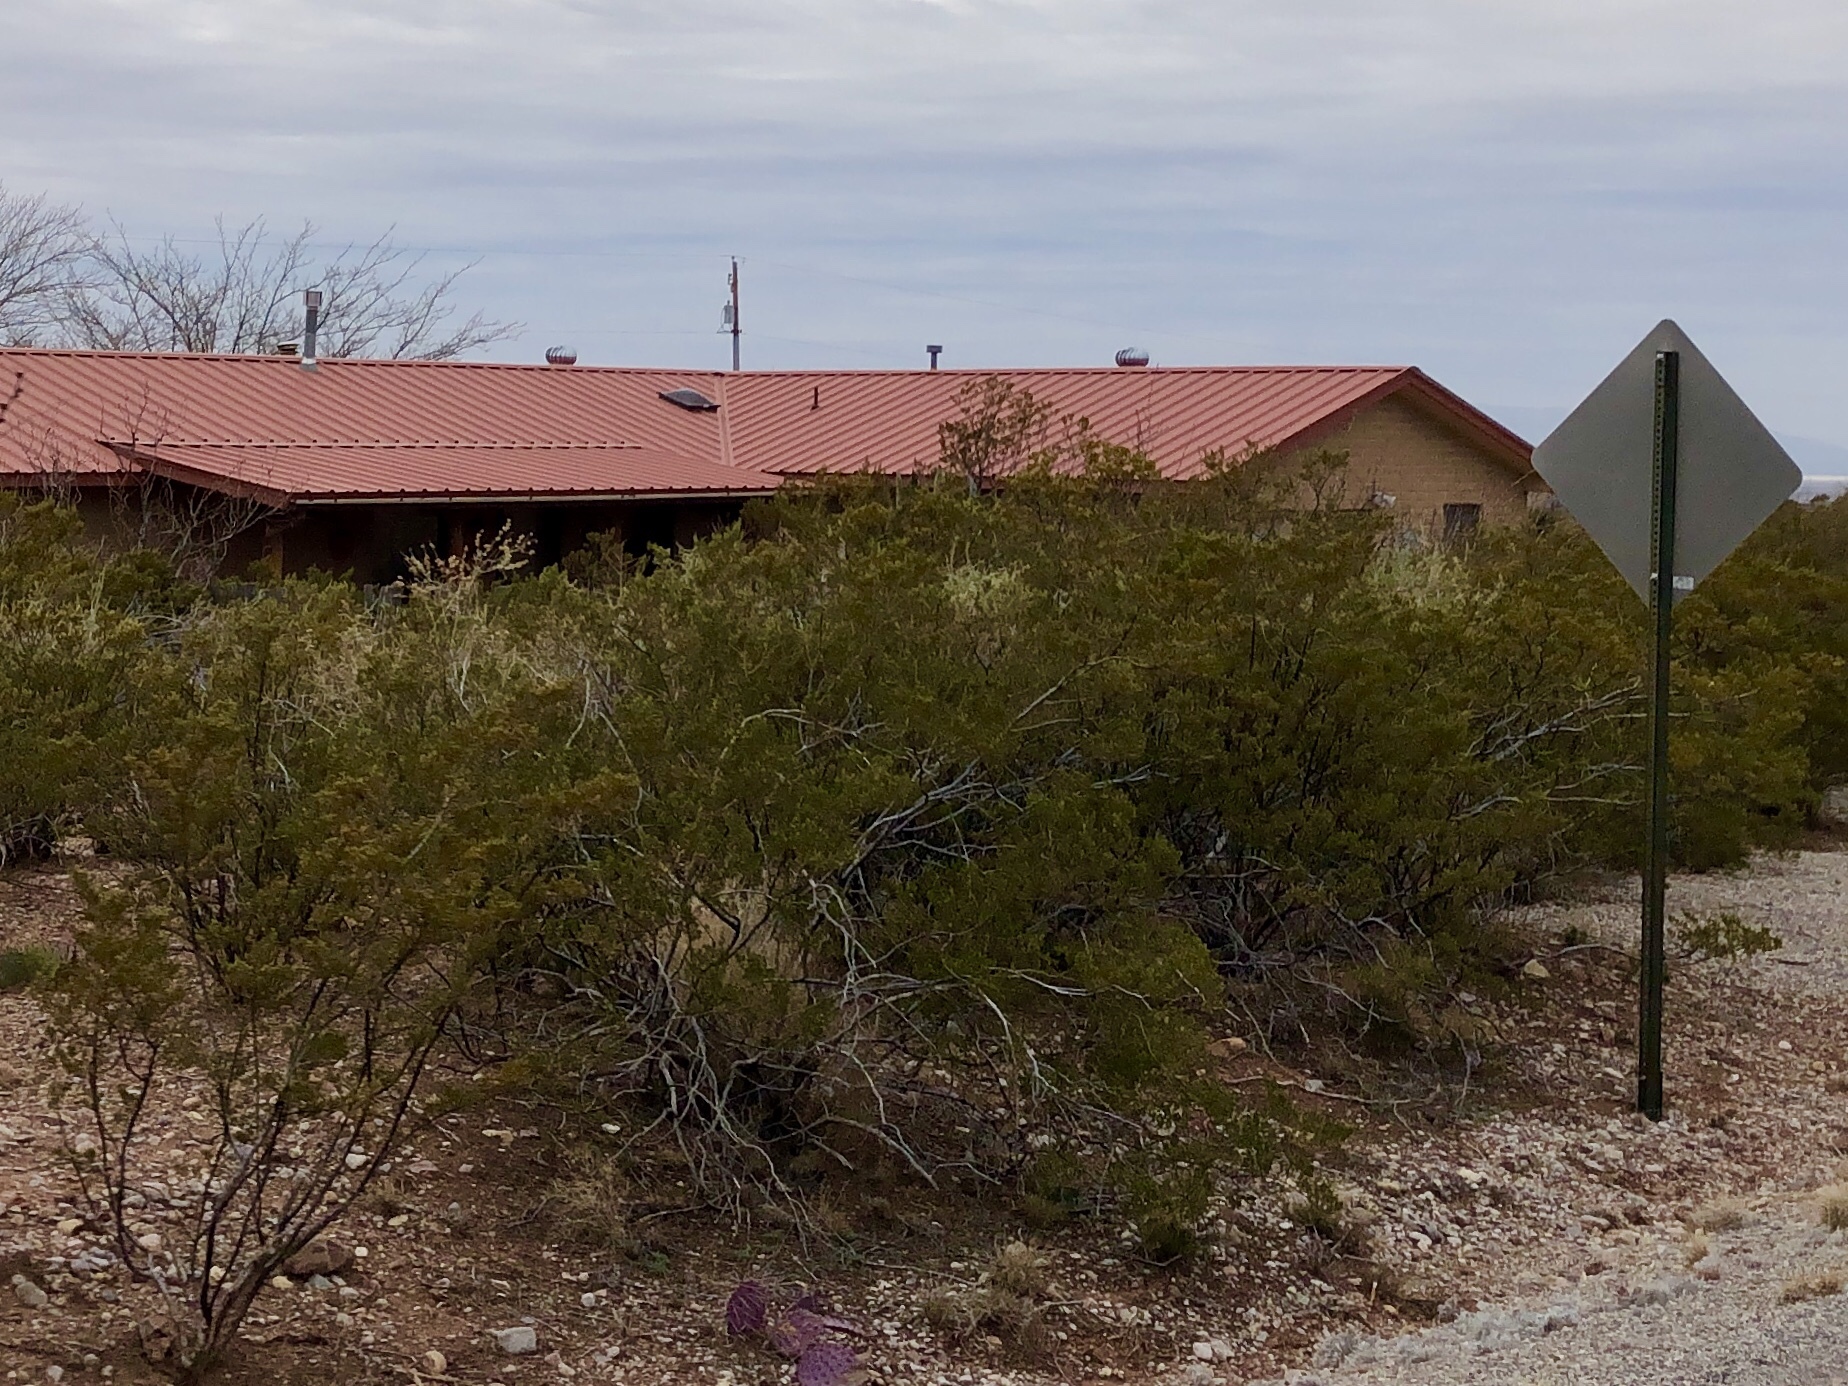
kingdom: Plantae
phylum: Tracheophyta
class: Magnoliopsida
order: Zygophyllales
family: Zygophyllaceae
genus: Larrea
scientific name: Larrea tridentata
